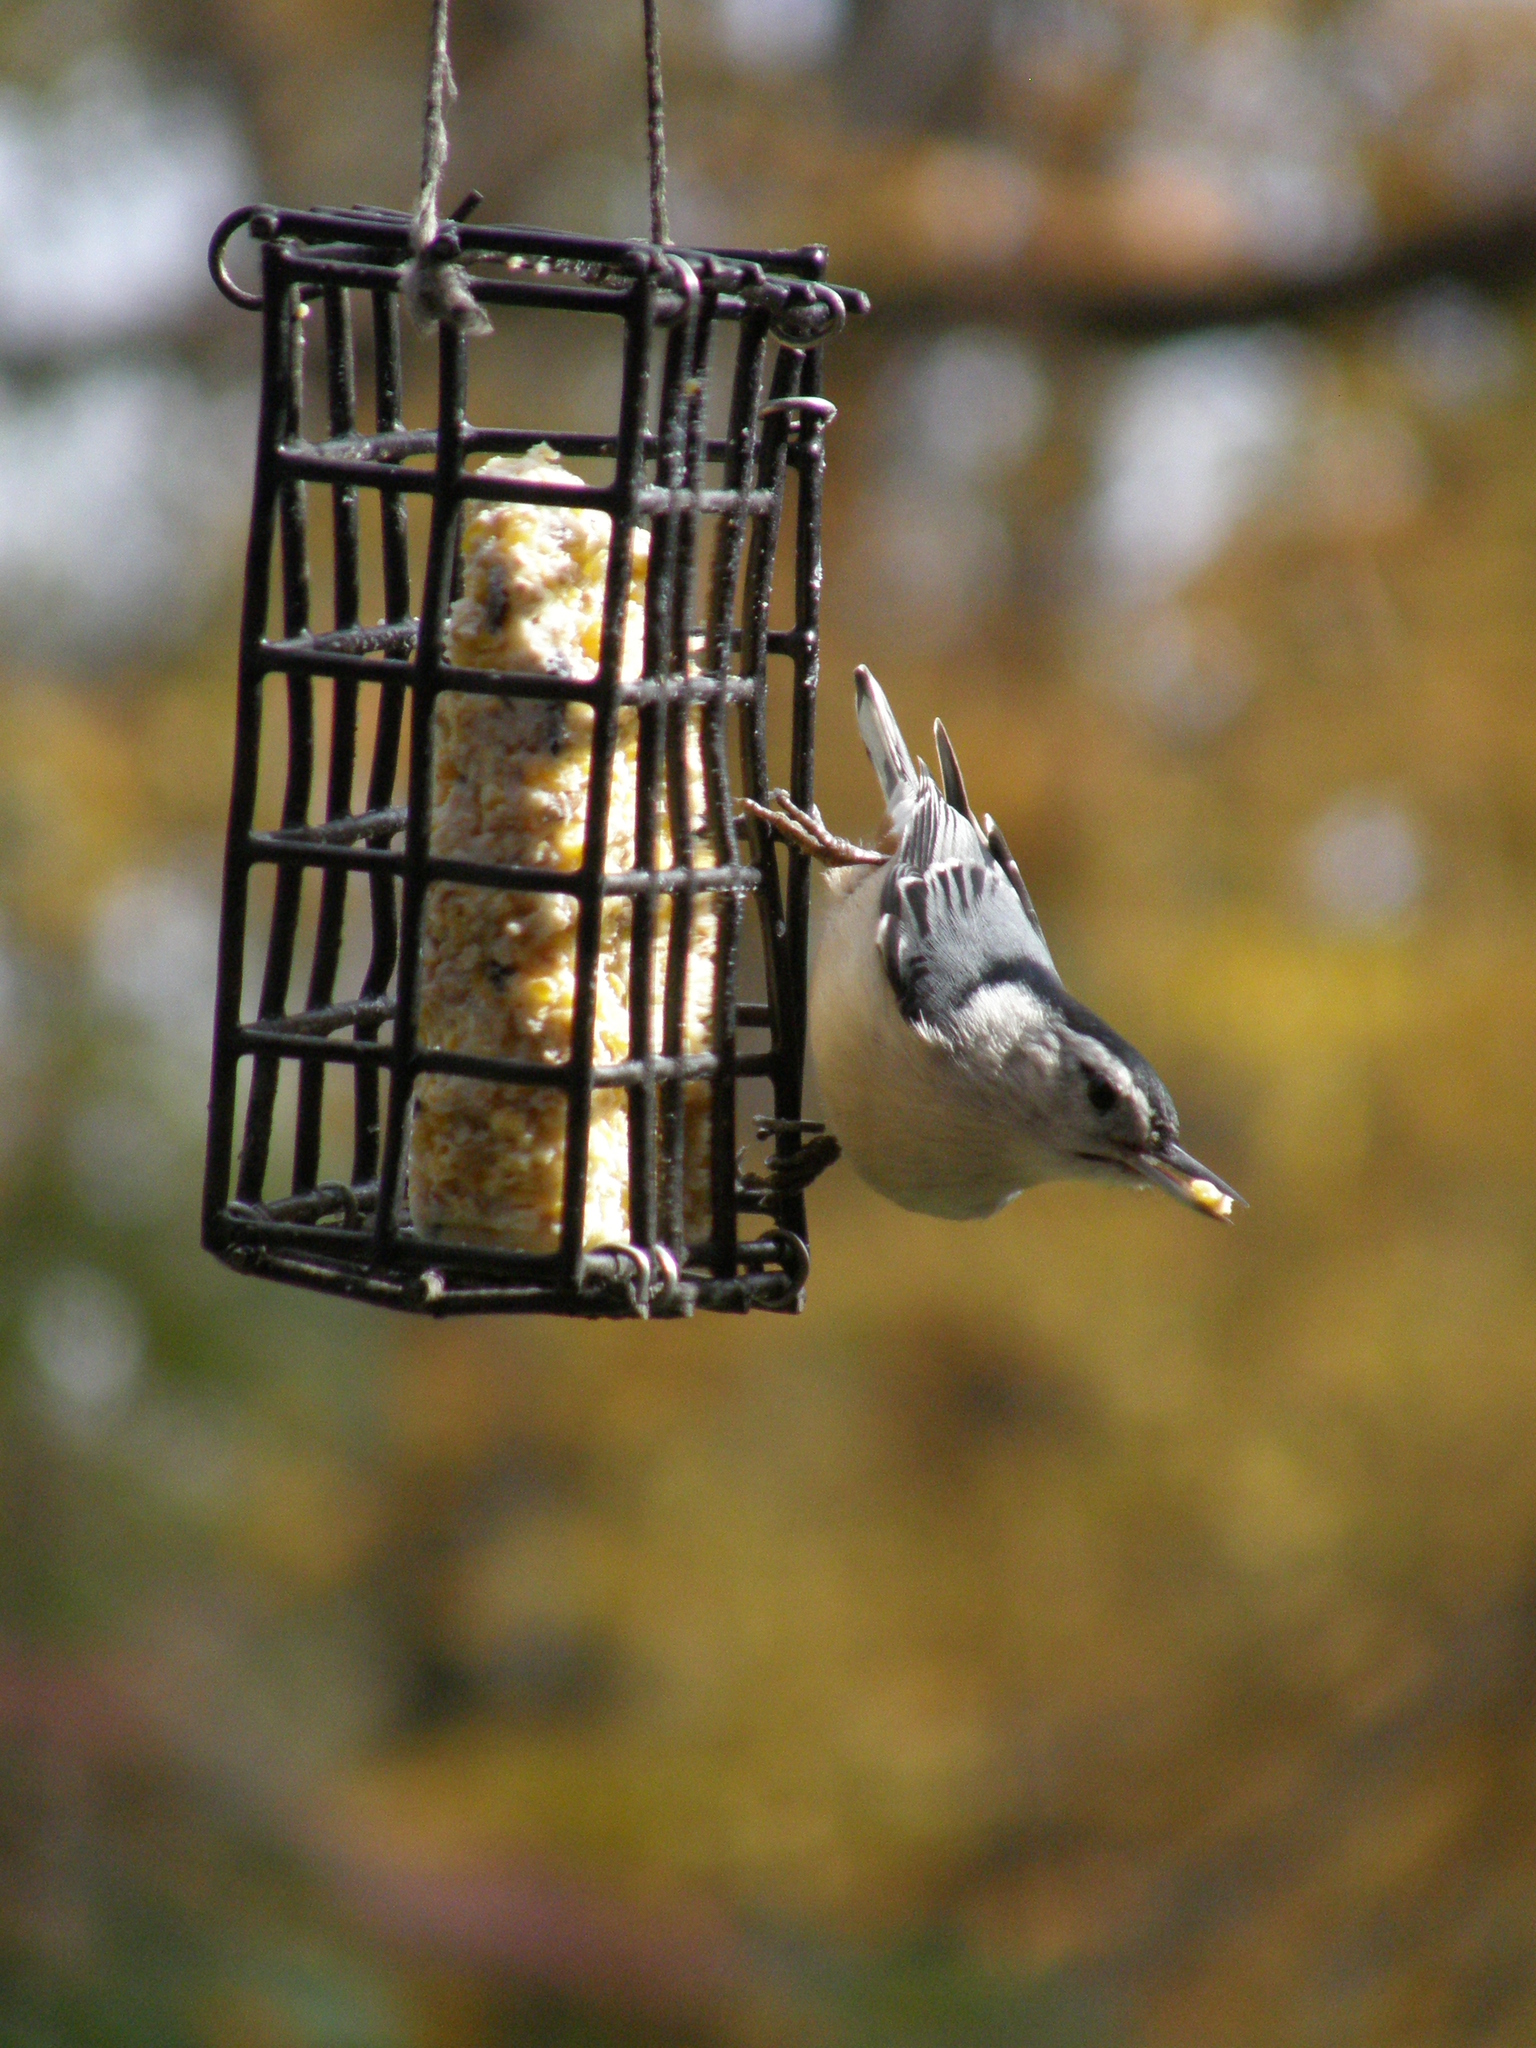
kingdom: Animalia
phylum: Chordata
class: Aves
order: Passeriformes
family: Sittidae
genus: Sitta
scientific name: Sitta carolinensis
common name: White-breasted nuthatch
